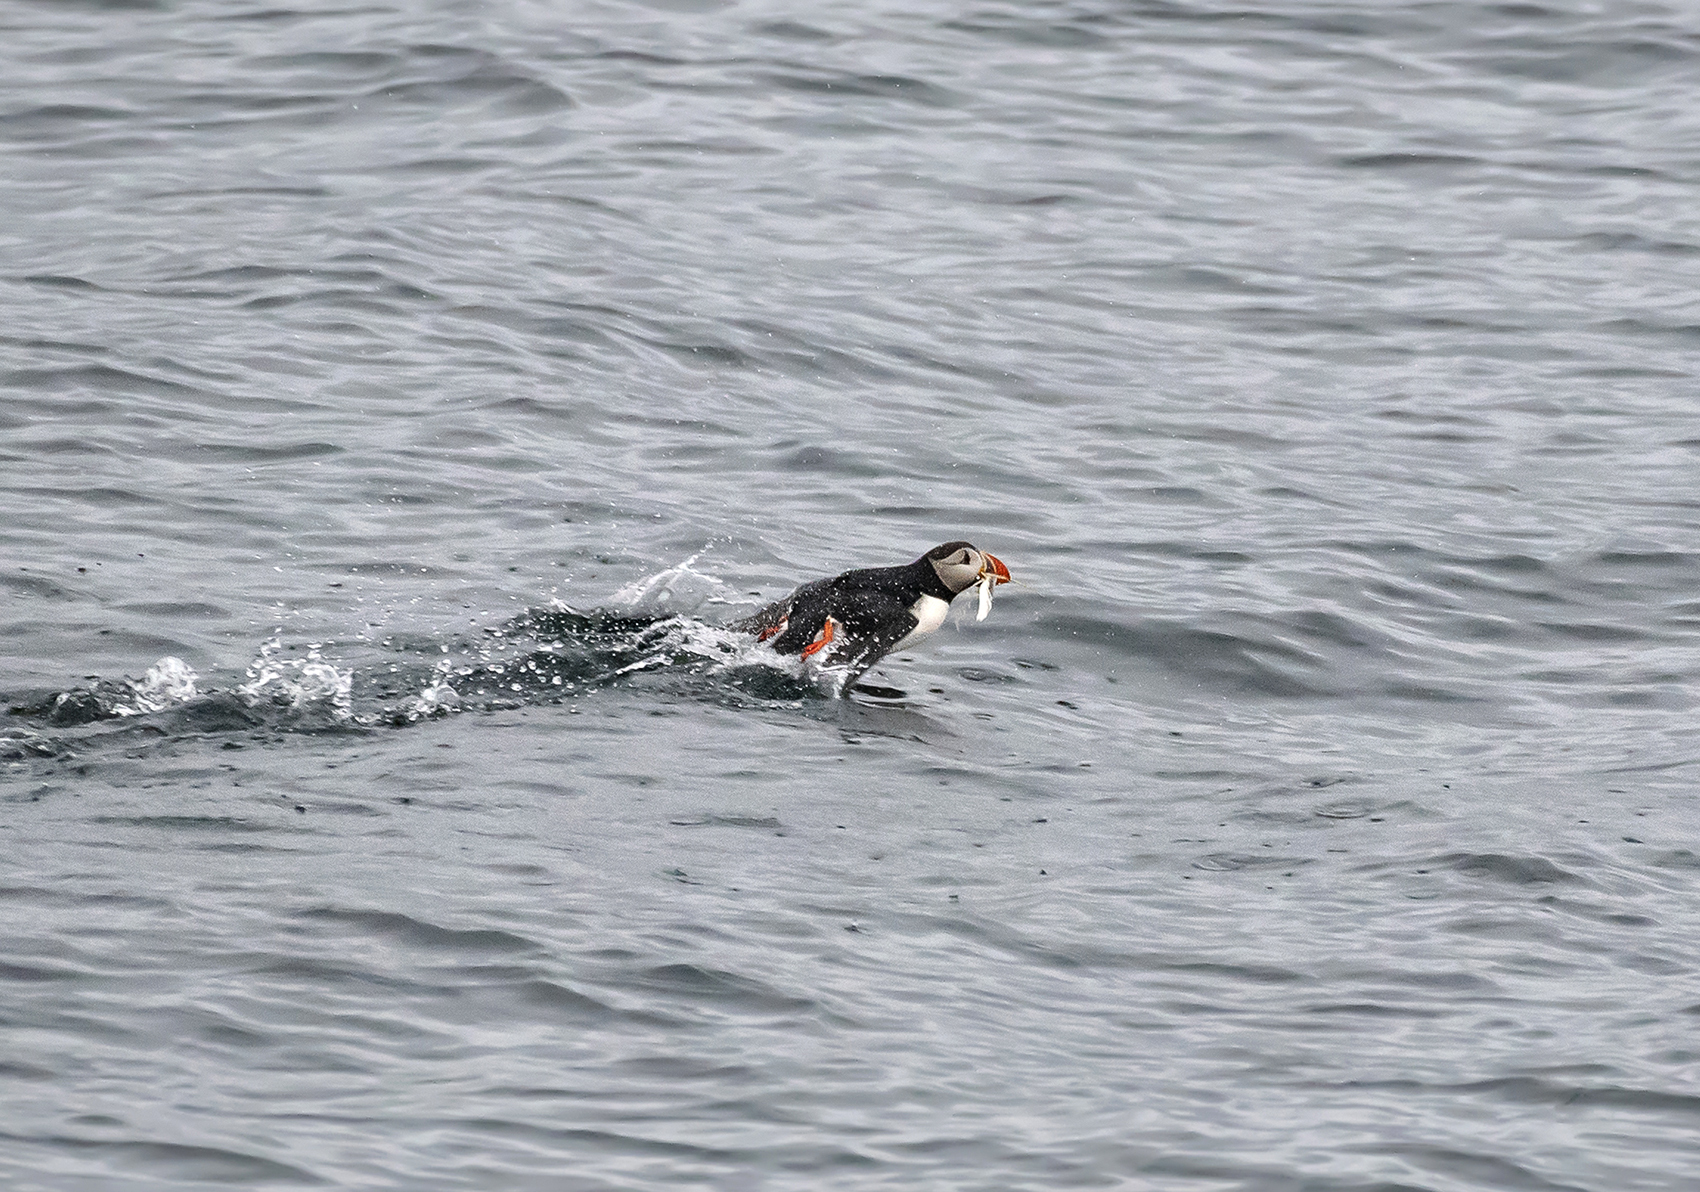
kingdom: Animalia
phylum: Chordata
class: Aves
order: Charadriiformes
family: Alcidae
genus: Fratercula
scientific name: Fratercula arctica
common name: Atlantic puffin
